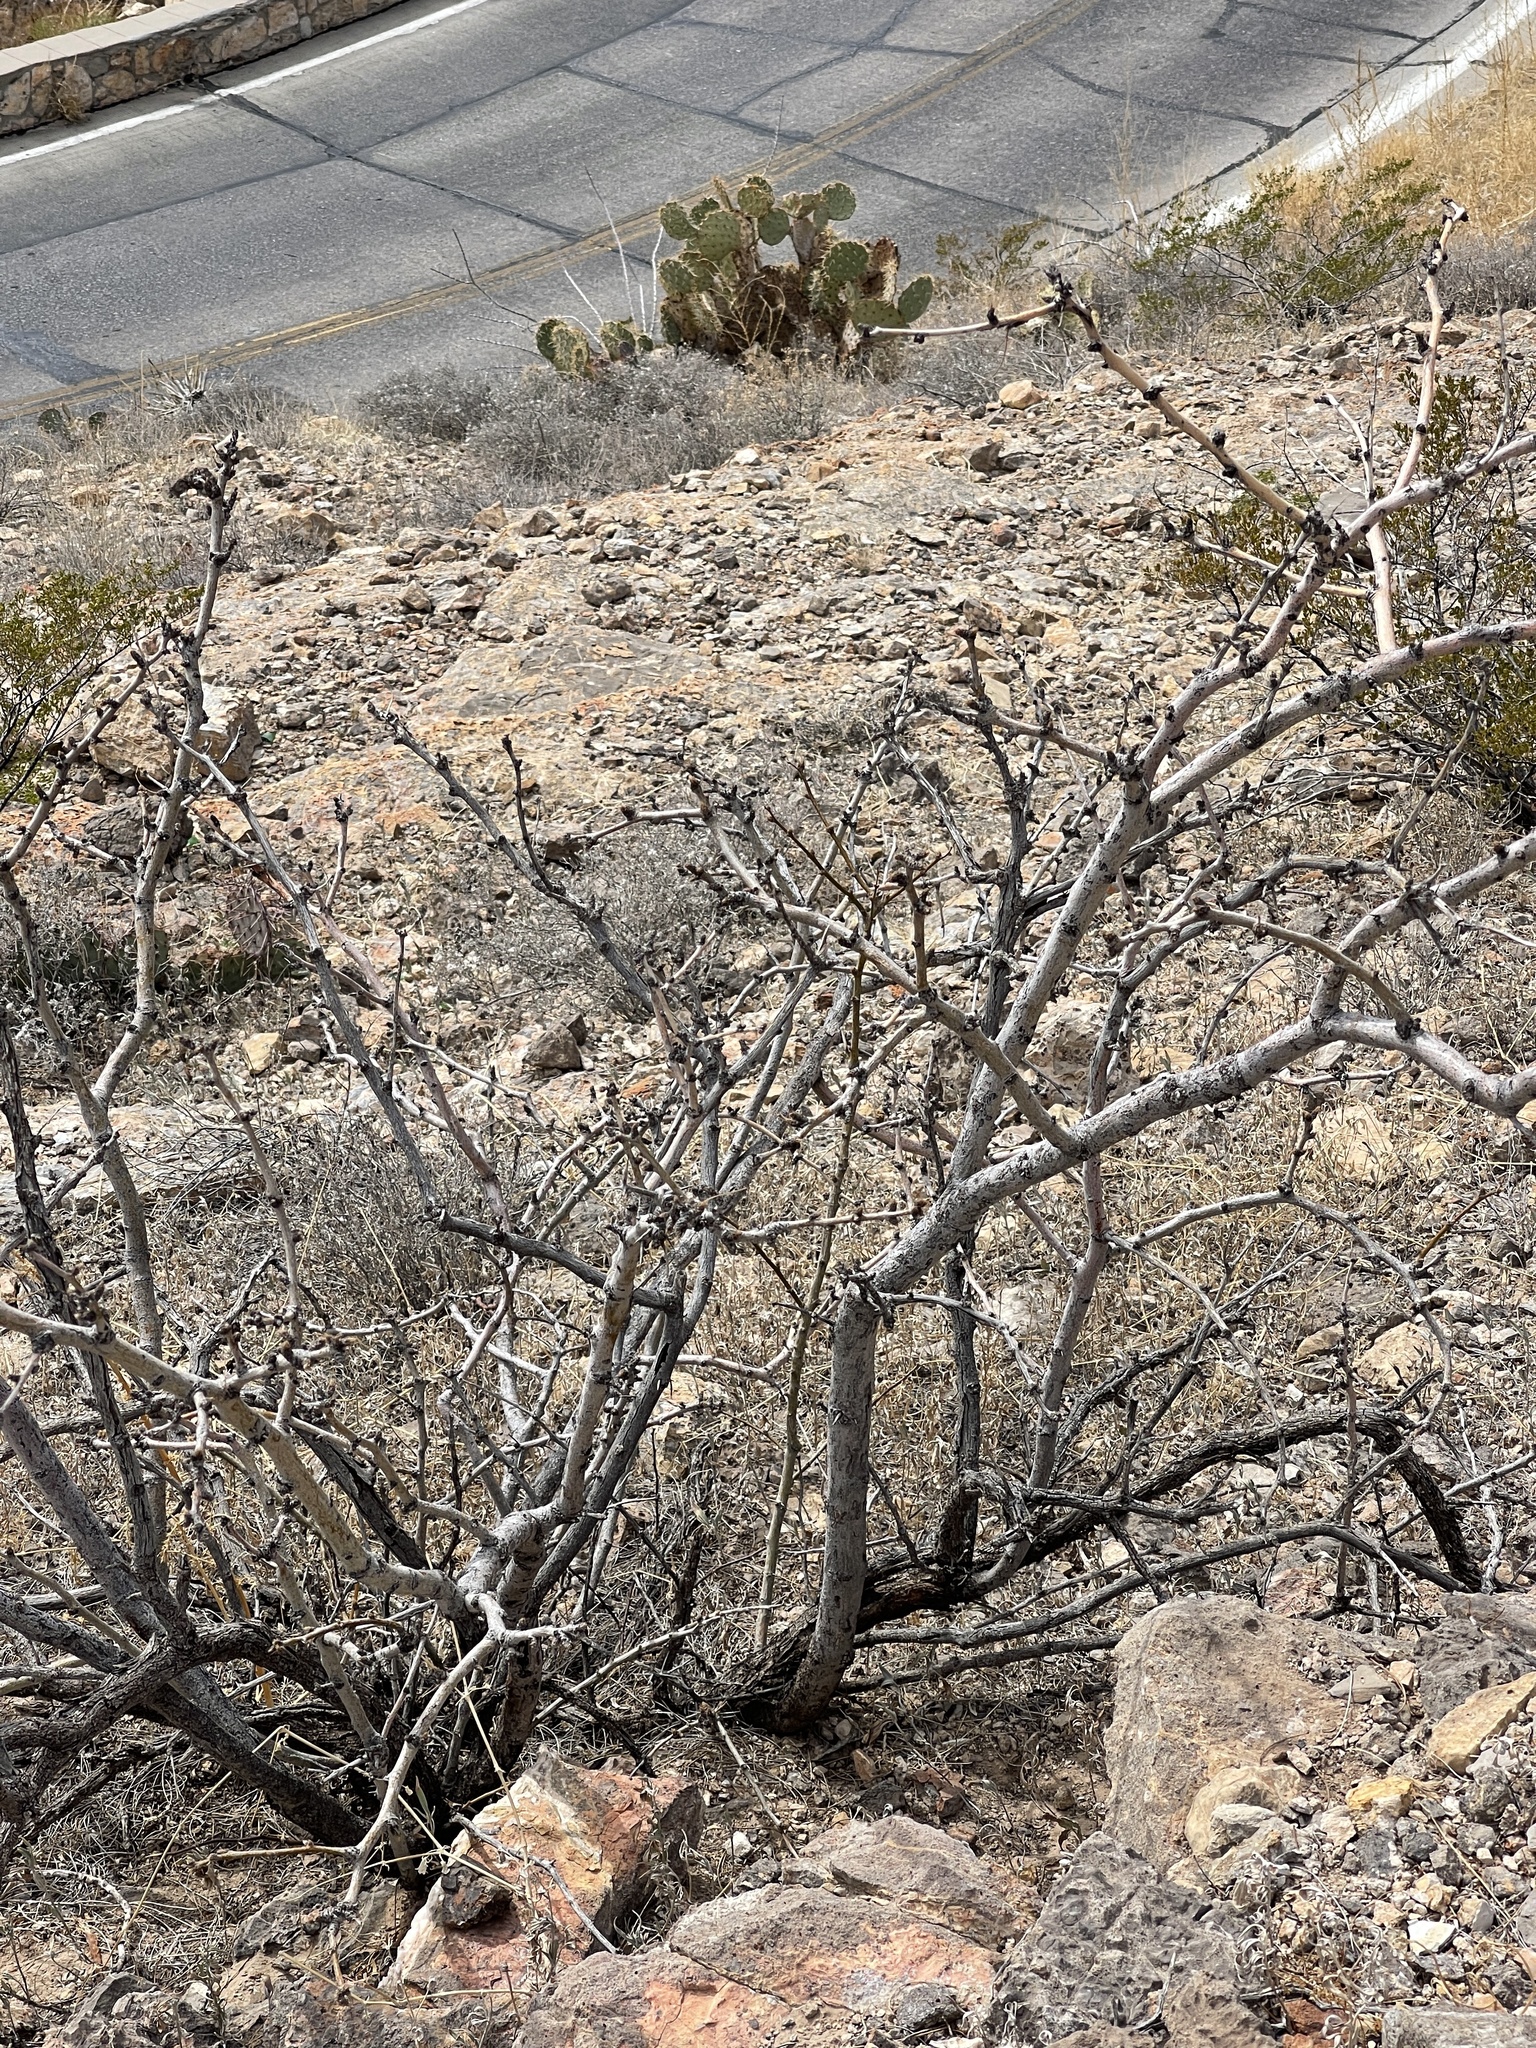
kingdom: Plantae
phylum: Tracheophyta
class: Magnoliopsida
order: Fabales
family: Fabaceae
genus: Prosopis
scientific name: Prosopis glandulosa
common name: Honey mesquite
